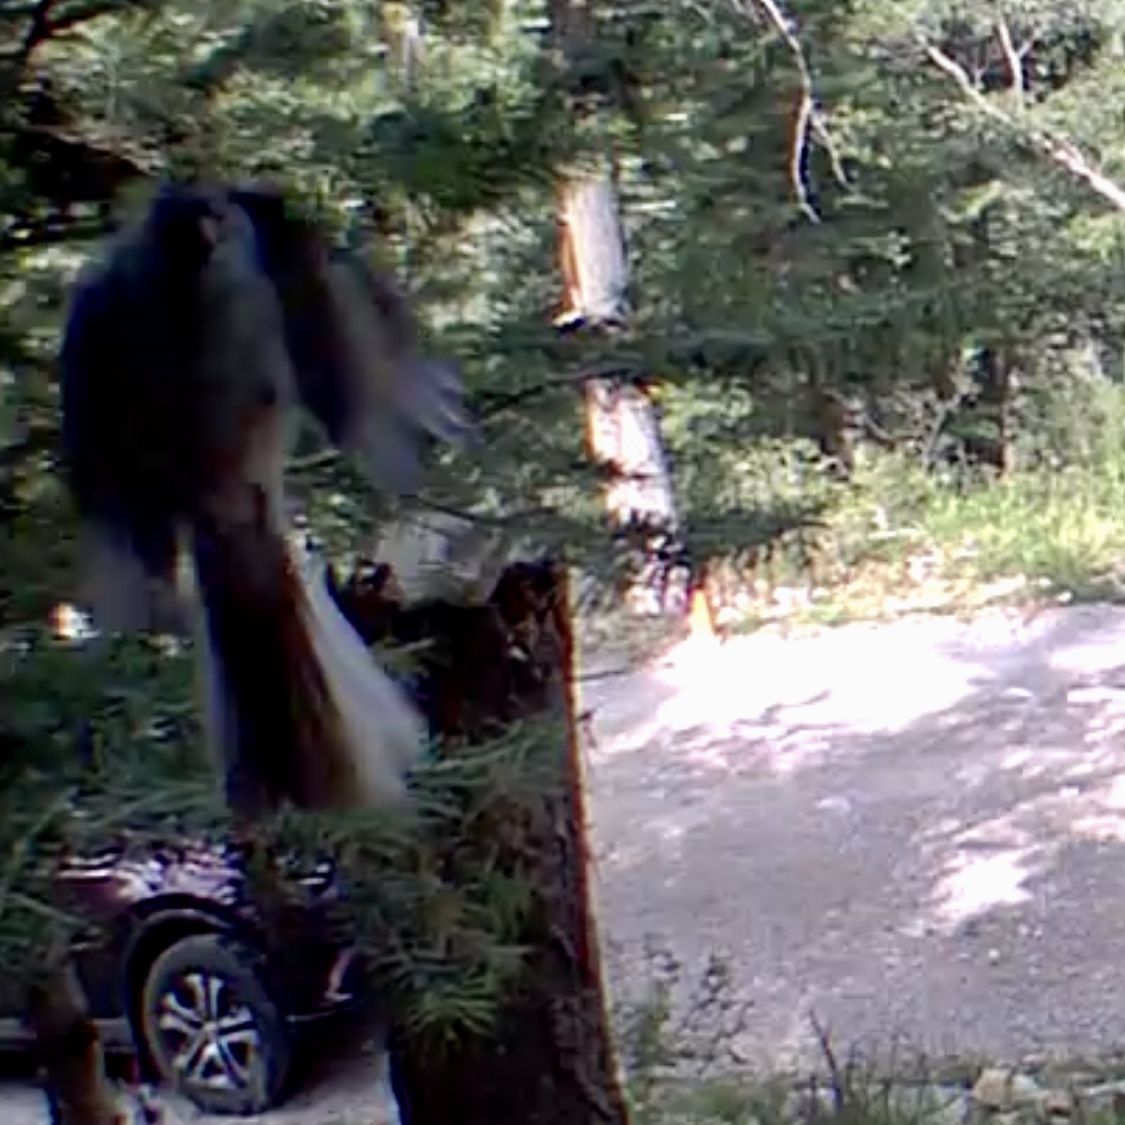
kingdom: Animalia
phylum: Chordata
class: Aves
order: Passeriformes
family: Passerellidae
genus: Junco
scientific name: Junco hyemalis
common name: Dark-eyed junco
